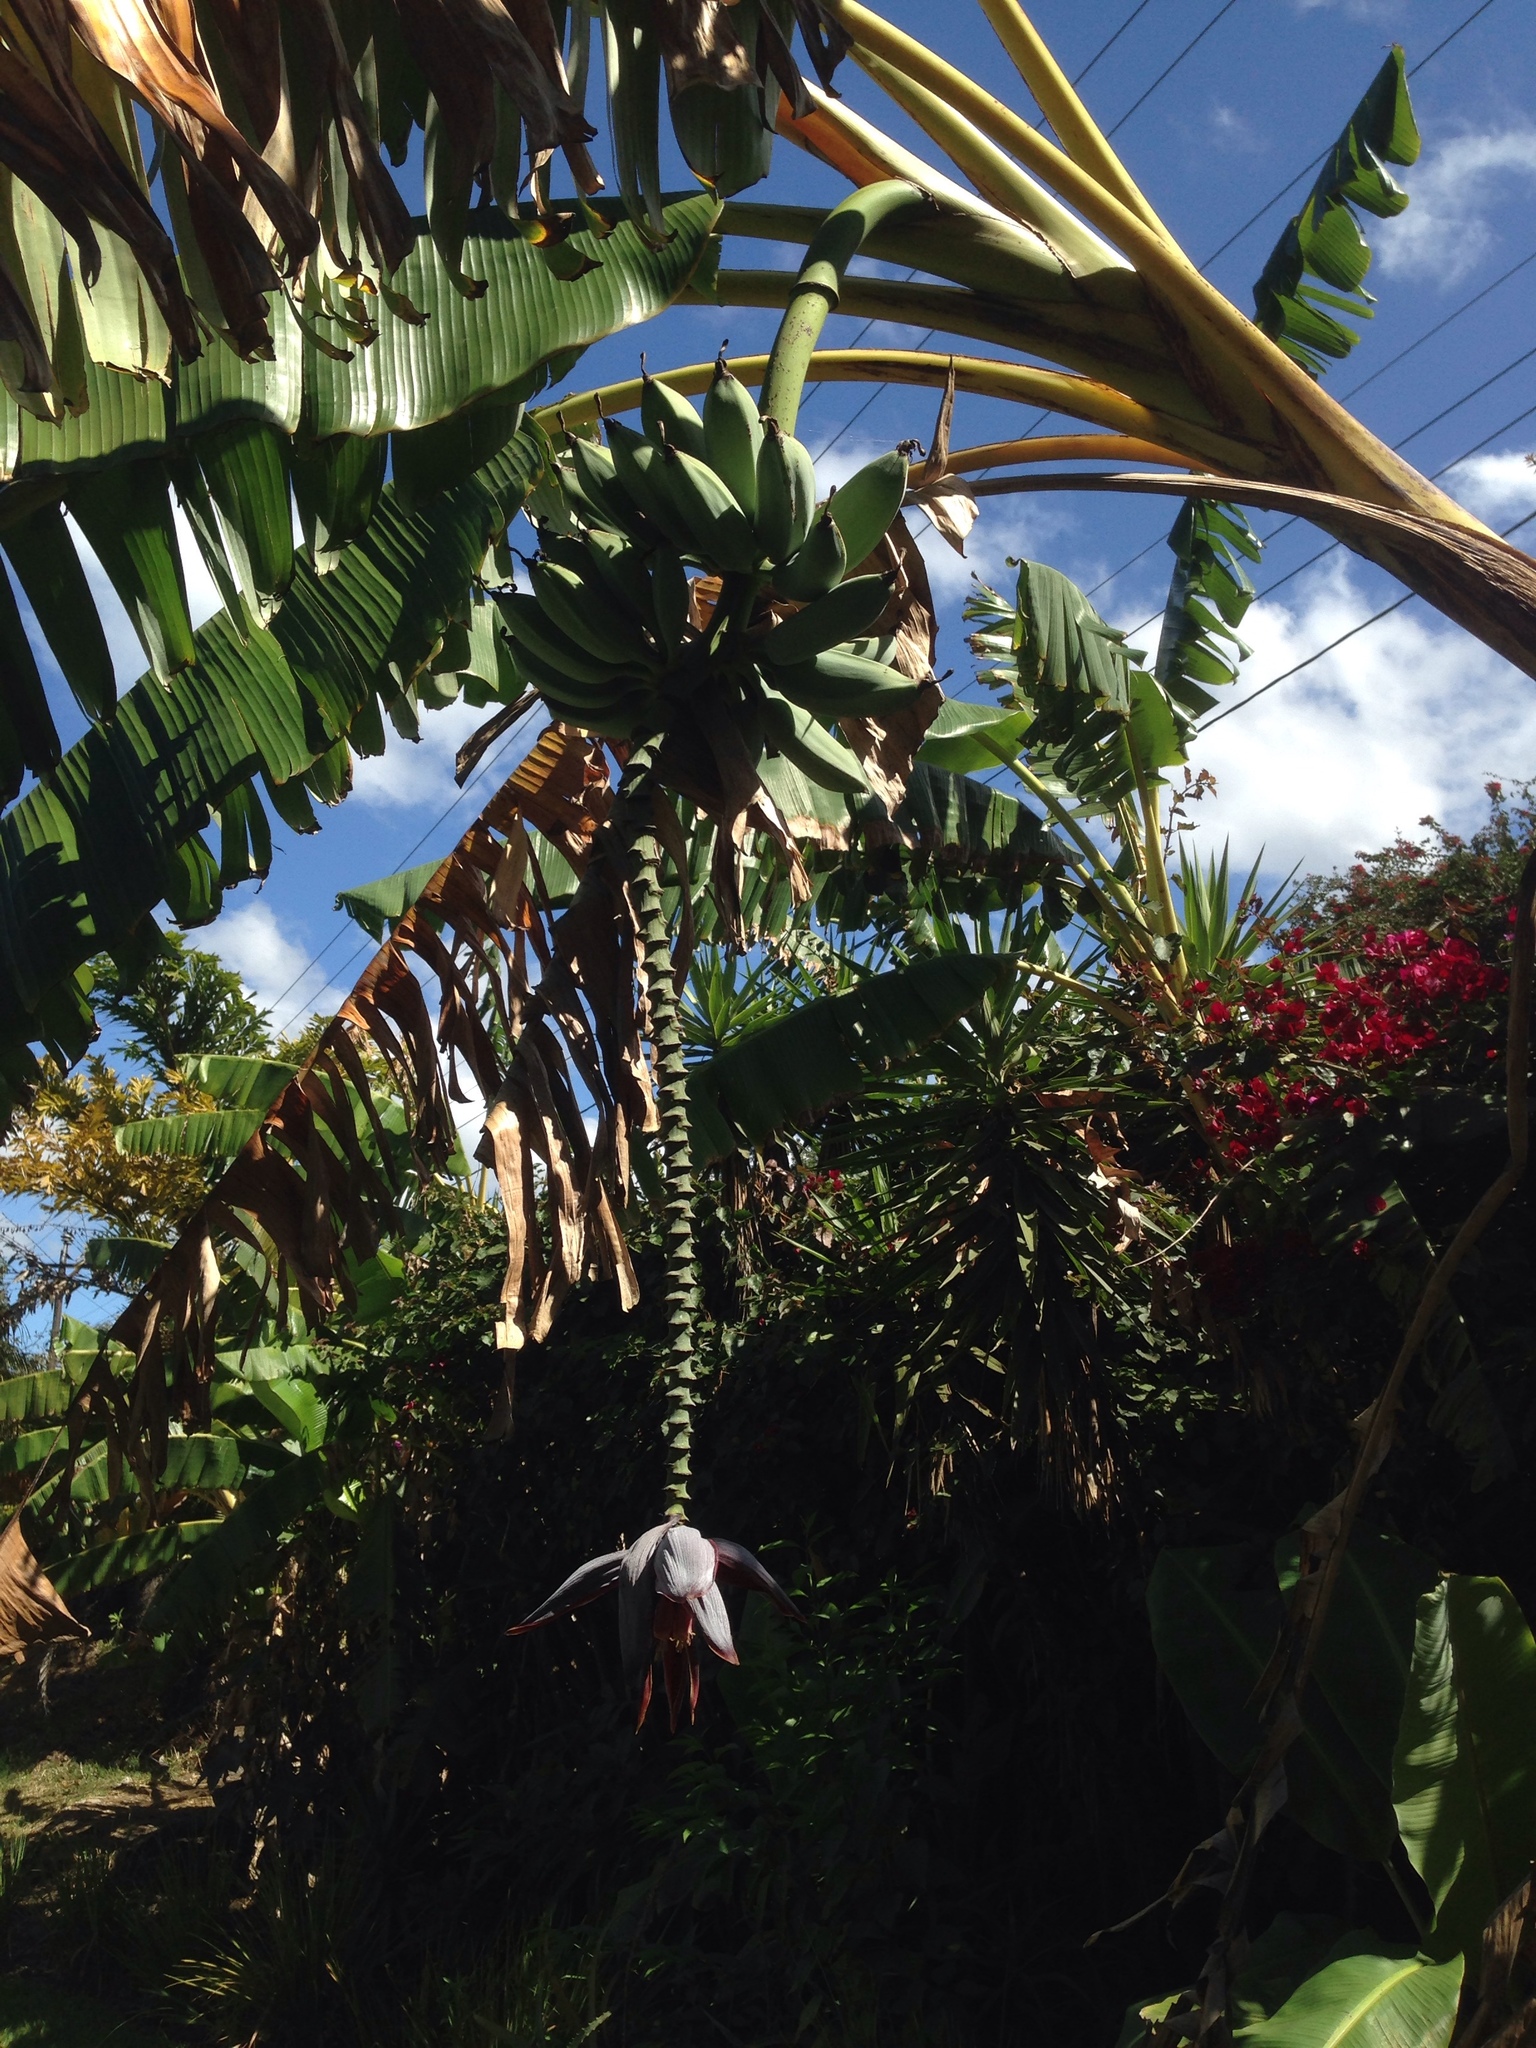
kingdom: Plantae
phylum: Tracheophyta
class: Liliopsida
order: Zingiberales
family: Musaceae
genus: Musa
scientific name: Musa paradisiaca
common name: French plantain
